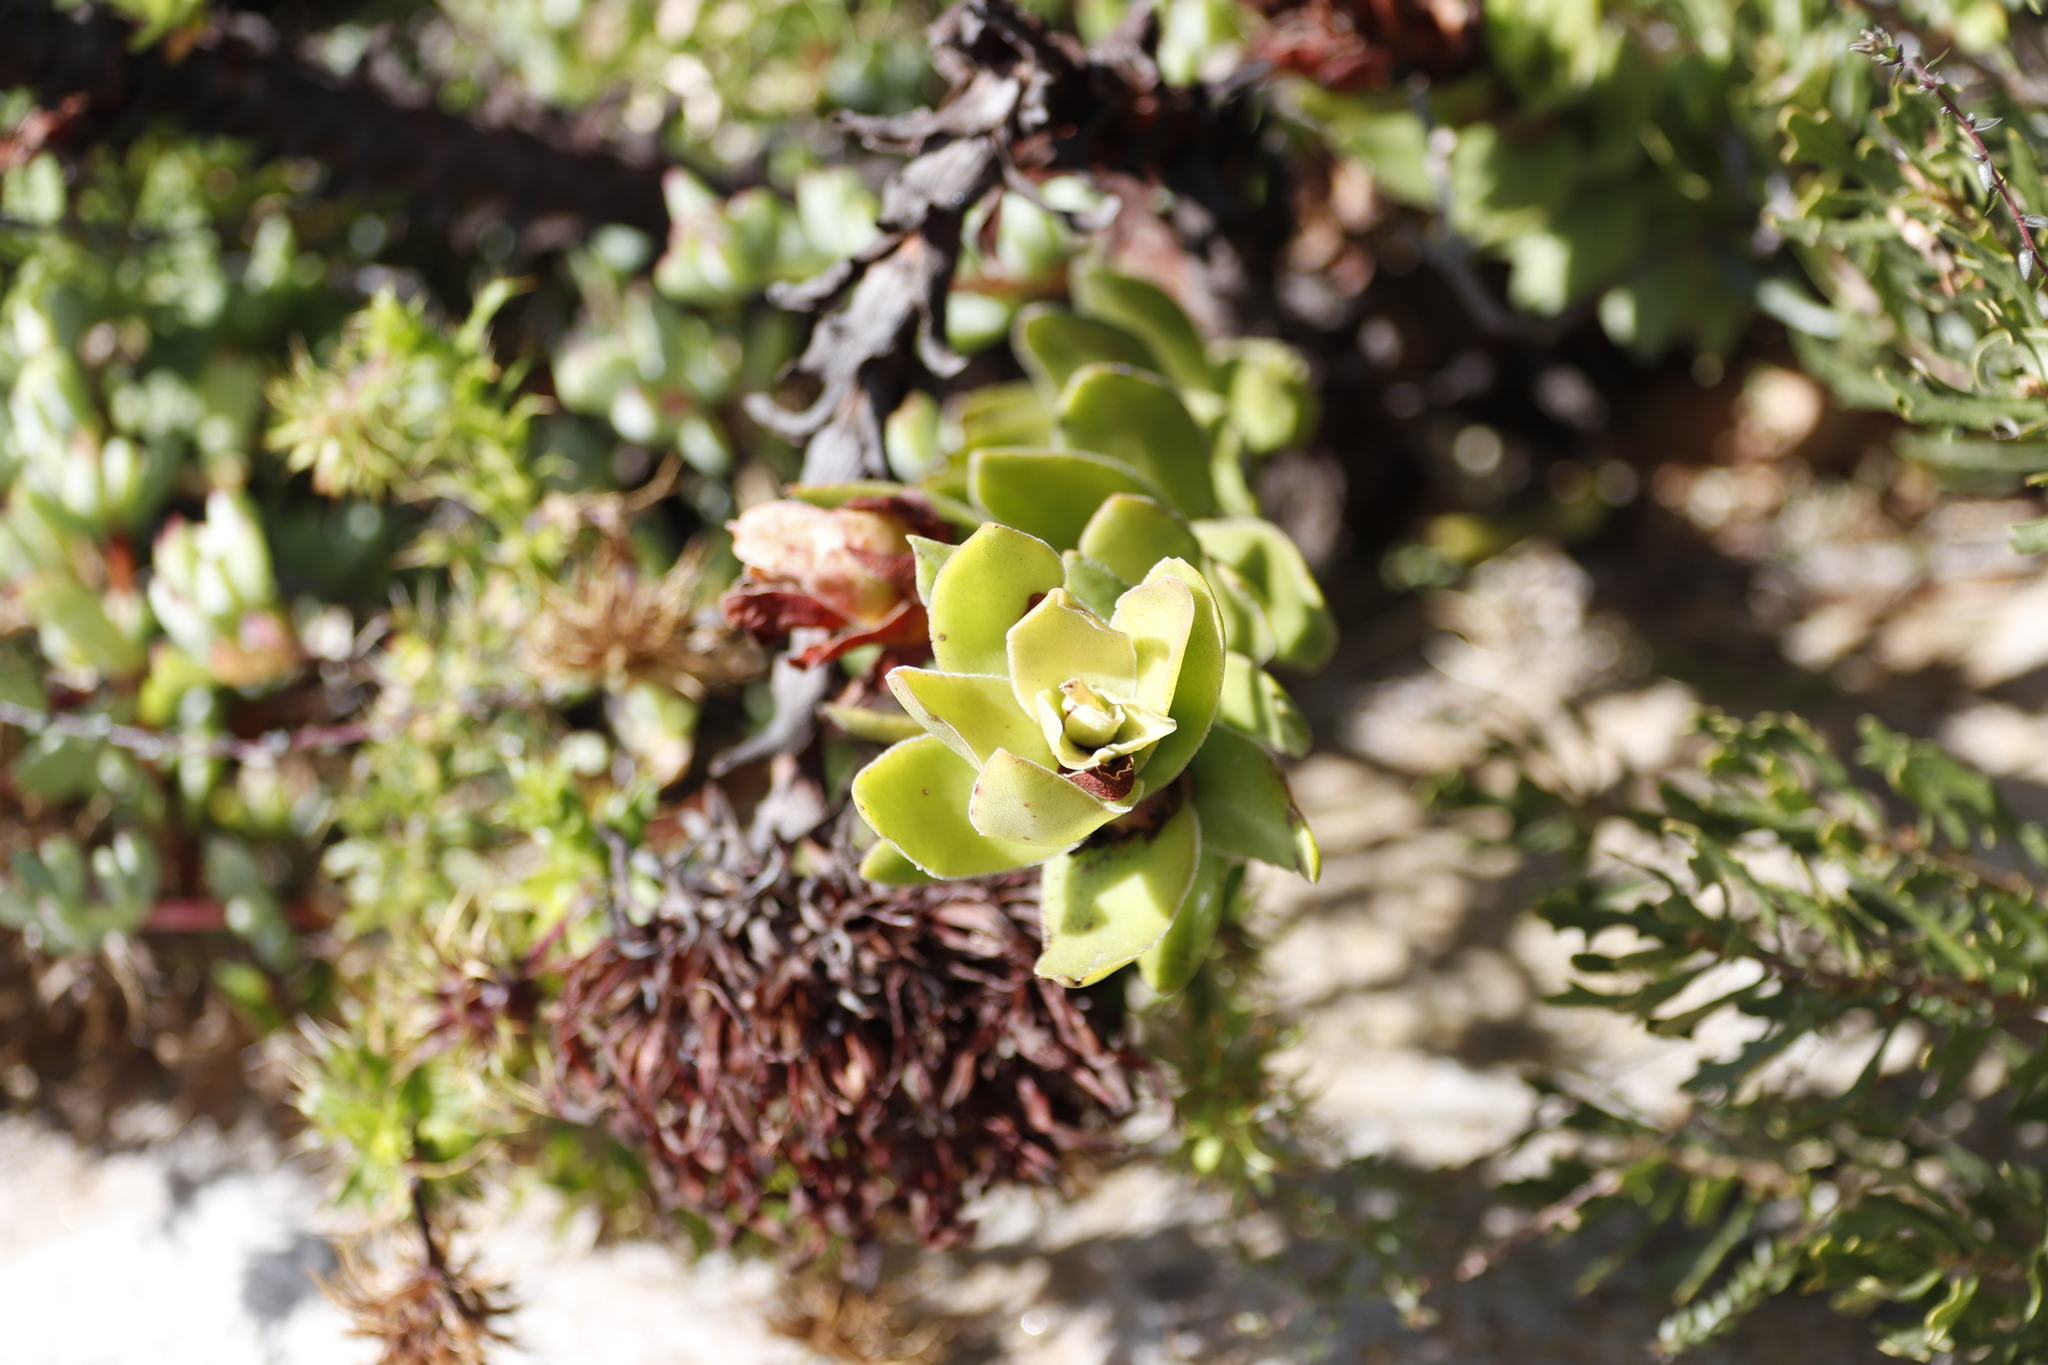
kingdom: Plantae
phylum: Tracheophyta
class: Magnoliopsida
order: Saxifragales
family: Crassulaceae
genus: Crassula
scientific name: Crassula coccinea
